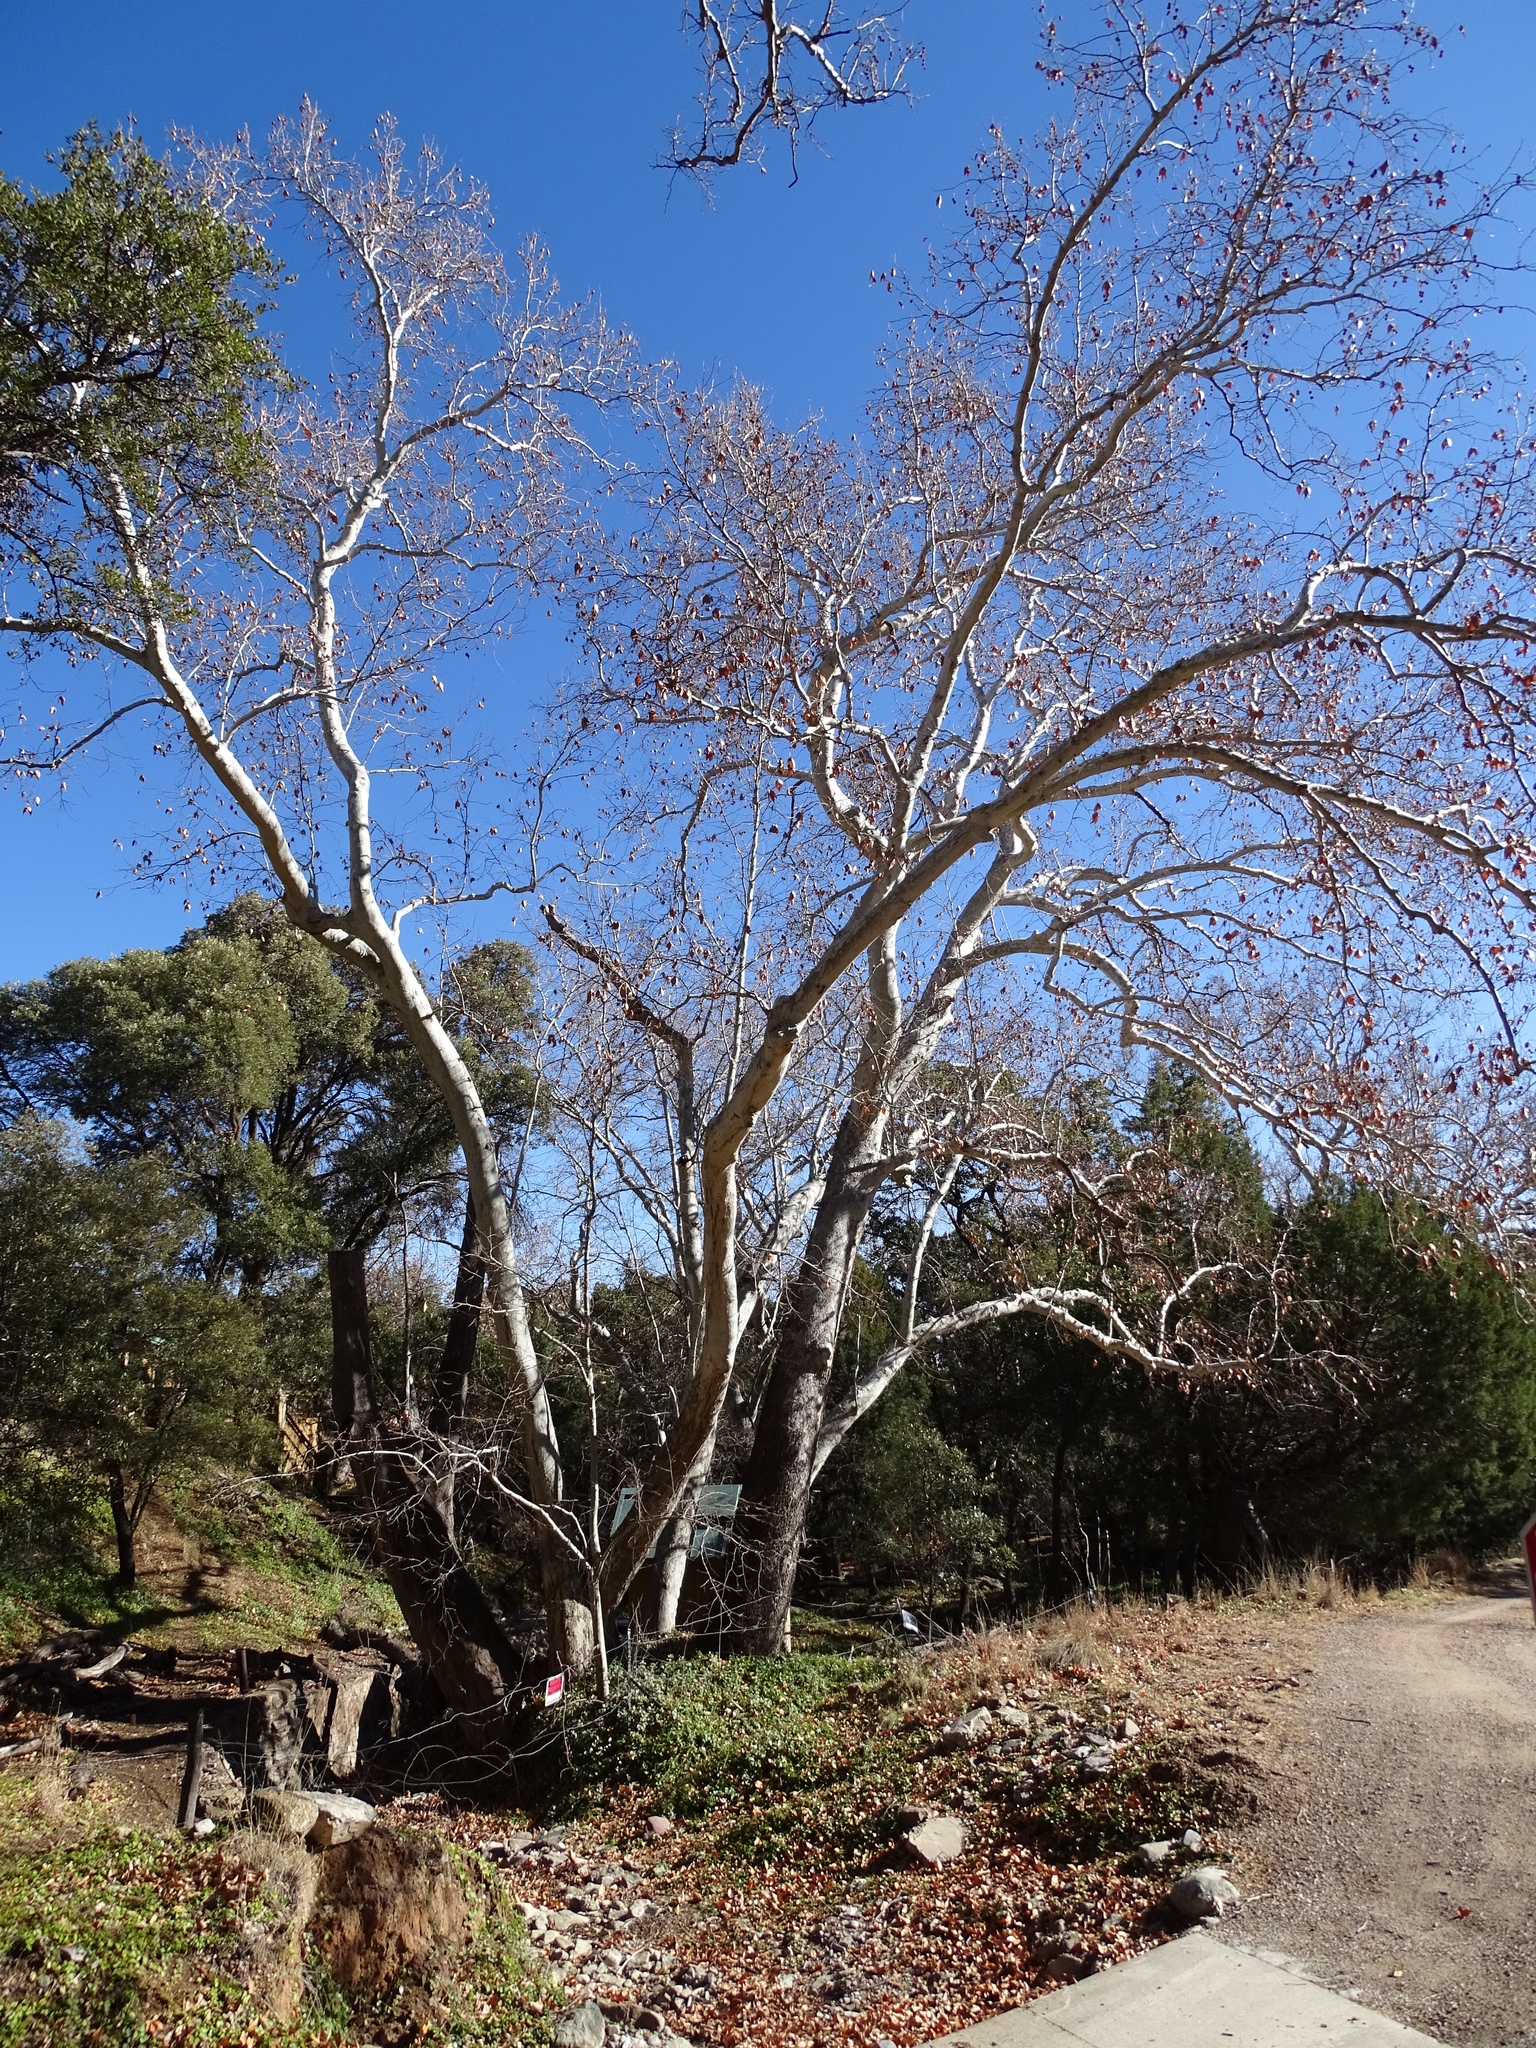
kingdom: Plantae
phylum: Tracheophyta
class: Magnoliopsida
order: Proteales
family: Platanaceae
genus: Platanus
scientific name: Platanus wrightii
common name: Arizona sycamore
